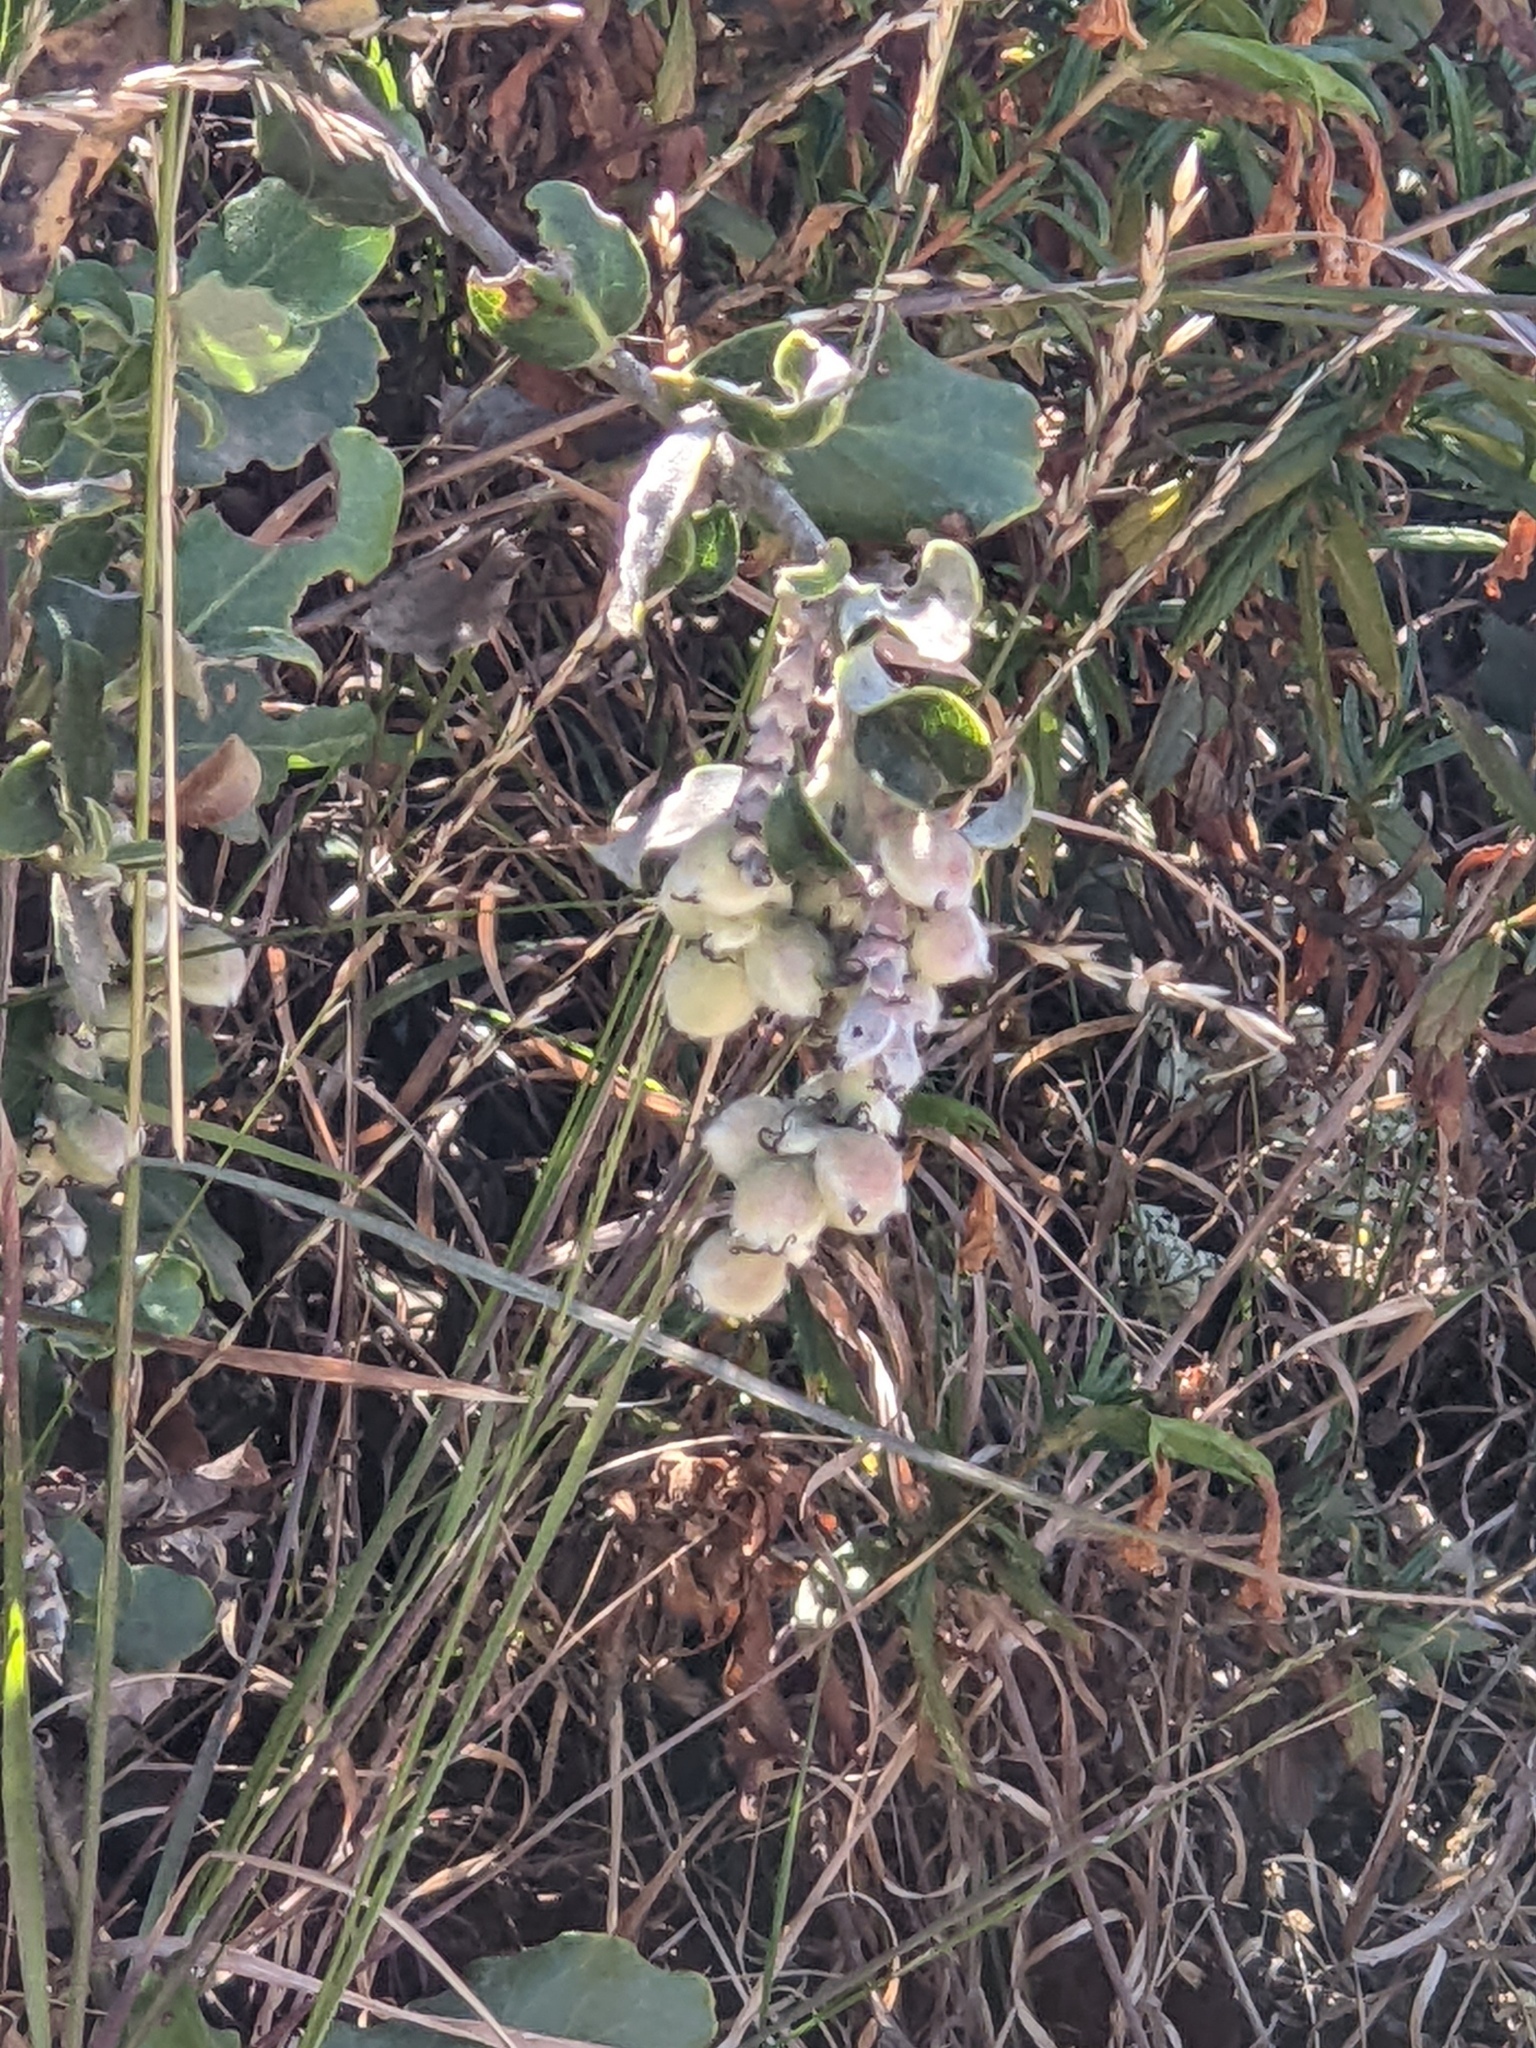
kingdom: Plantae
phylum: Tracheophyta
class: Magnoliopsida
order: Garryales
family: Garryaceae
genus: Garrya
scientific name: Garrya elliptica
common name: Silk-tassel
